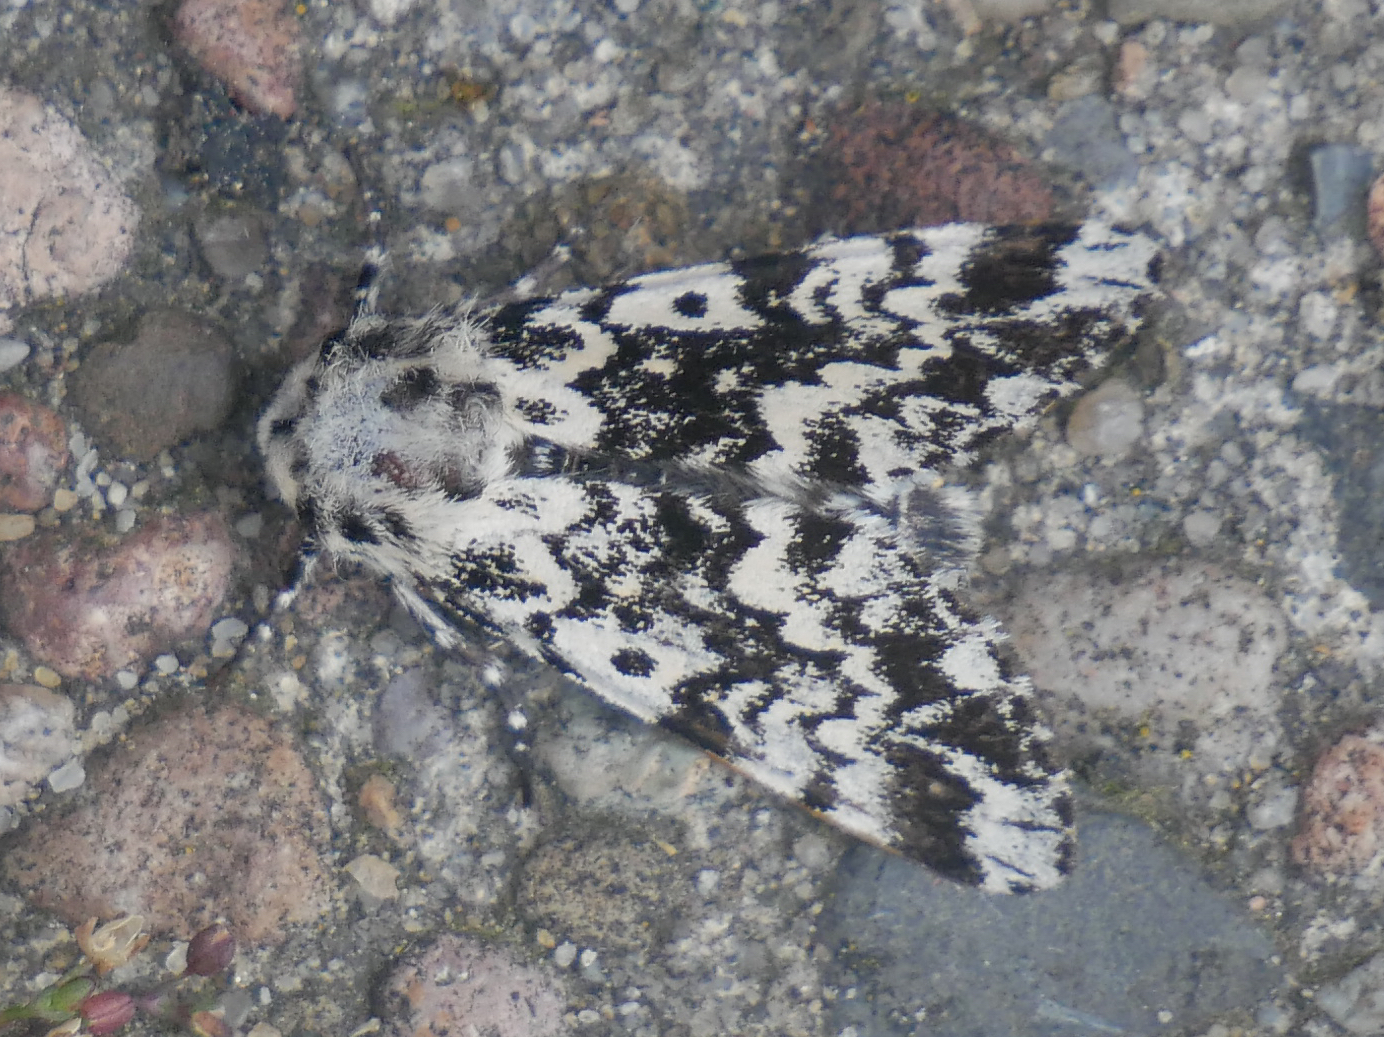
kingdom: Animalia
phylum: Arthropoda
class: Insecta
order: Lepidoptera
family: Noctuidae
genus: Panthea
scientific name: Panthea coenobita
